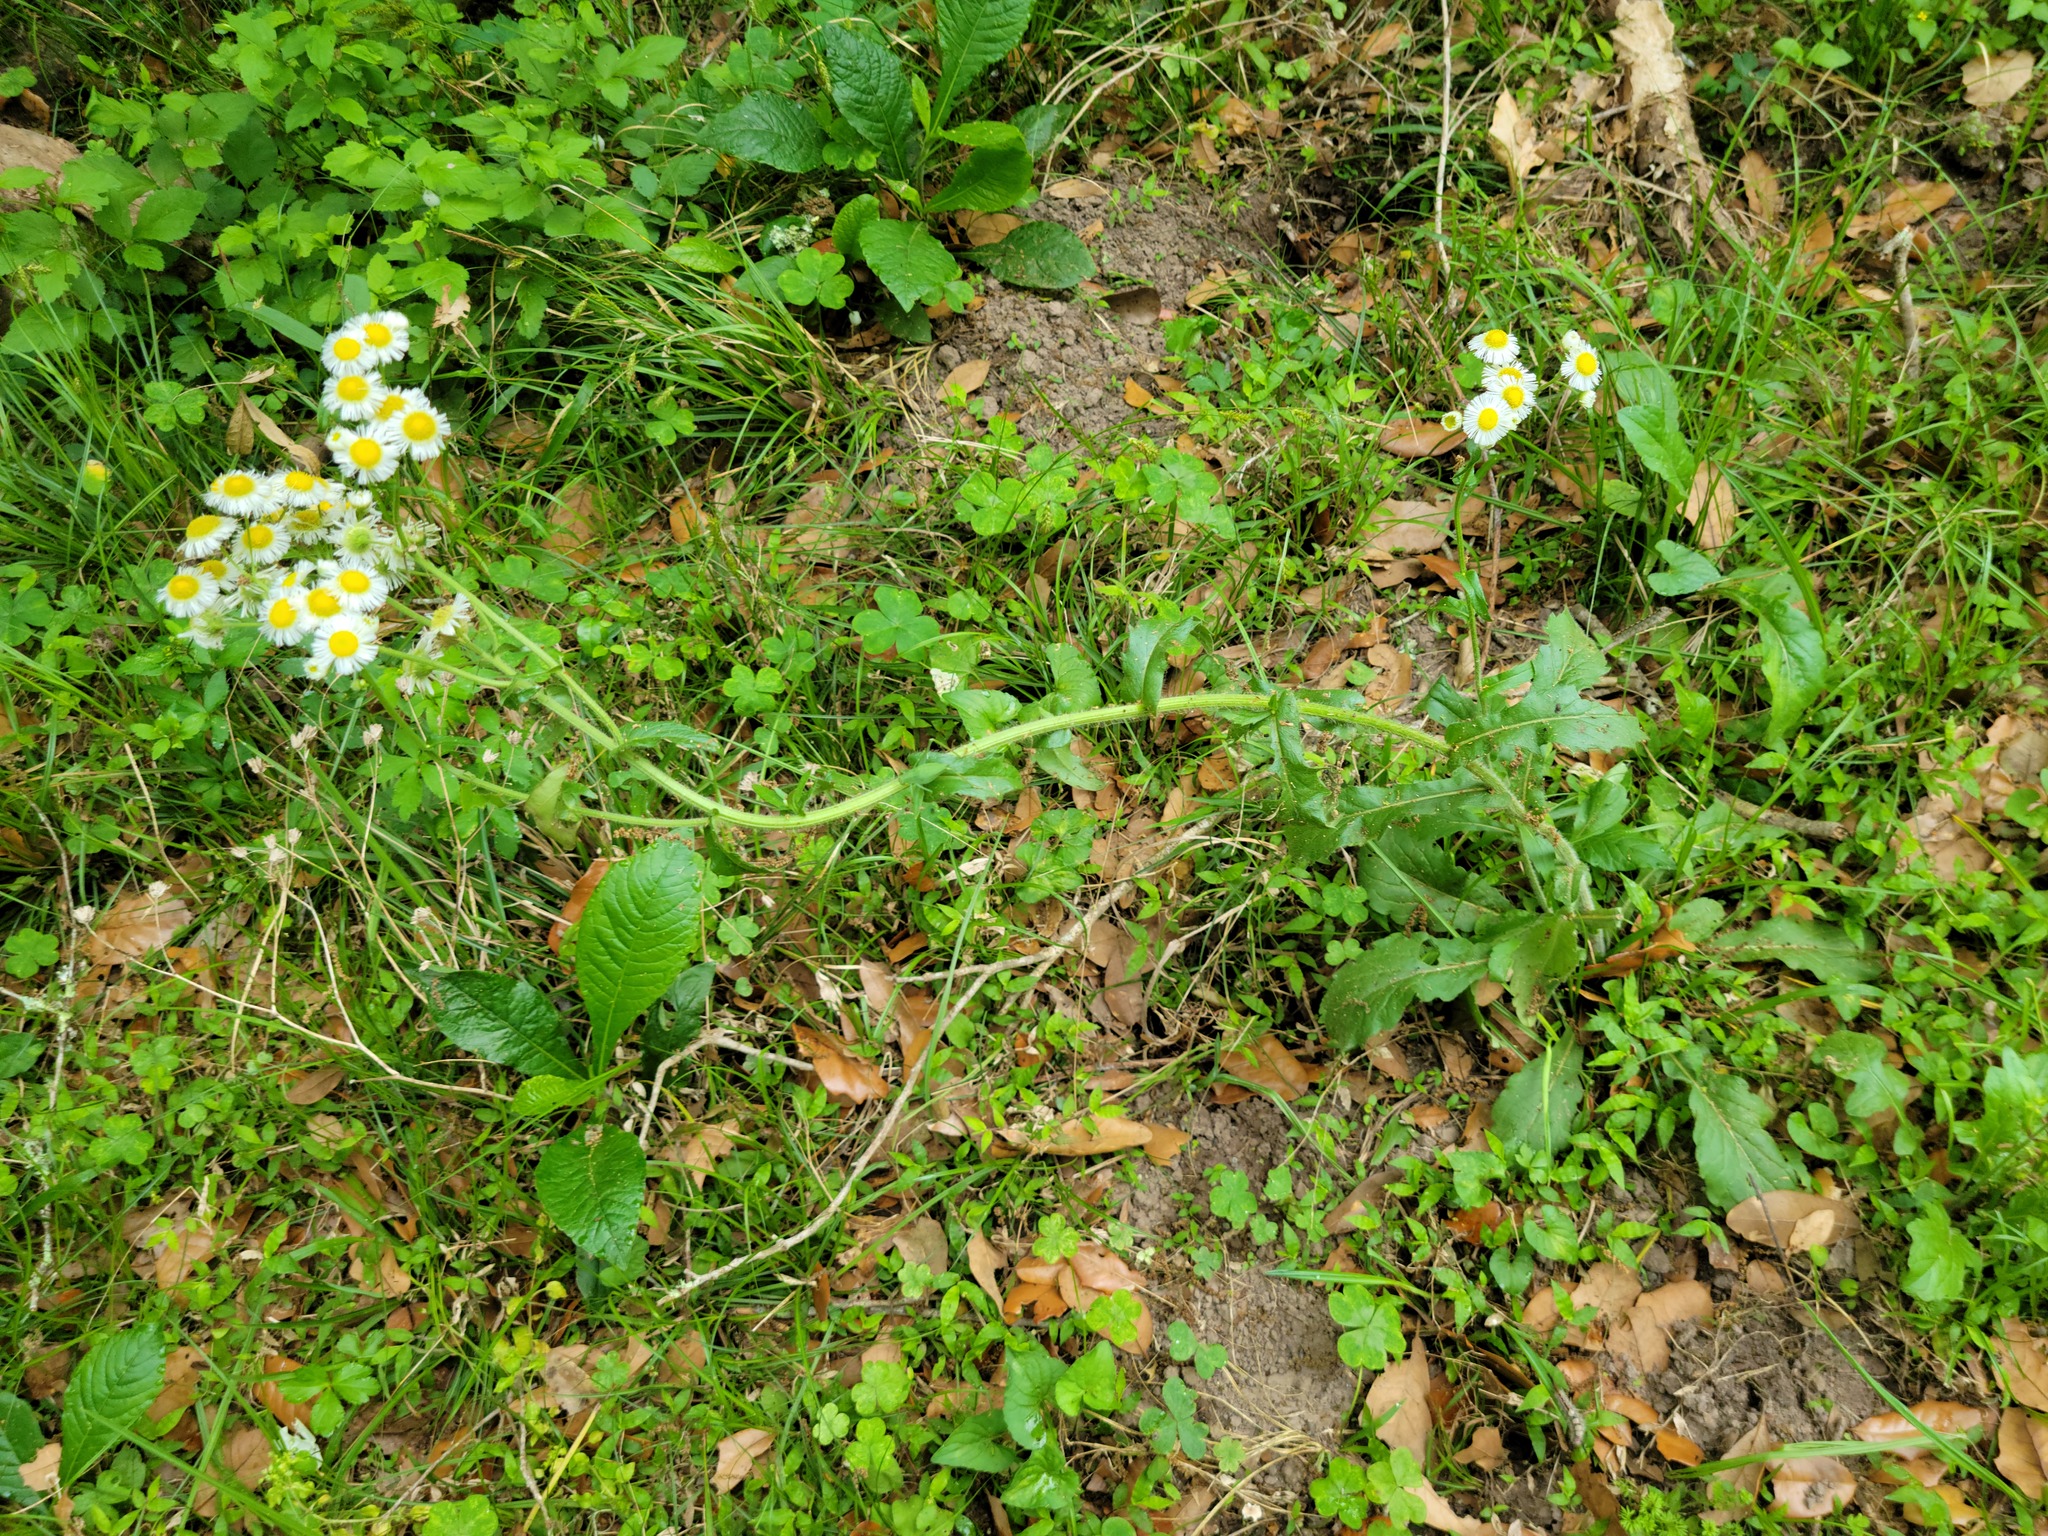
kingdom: Plantae
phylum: Tracheophyta
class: Magnoliopsida
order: Asterales
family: Asteraceae
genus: Erigeron
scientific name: Erigeron philadelphicus
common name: Robin's-plantain
